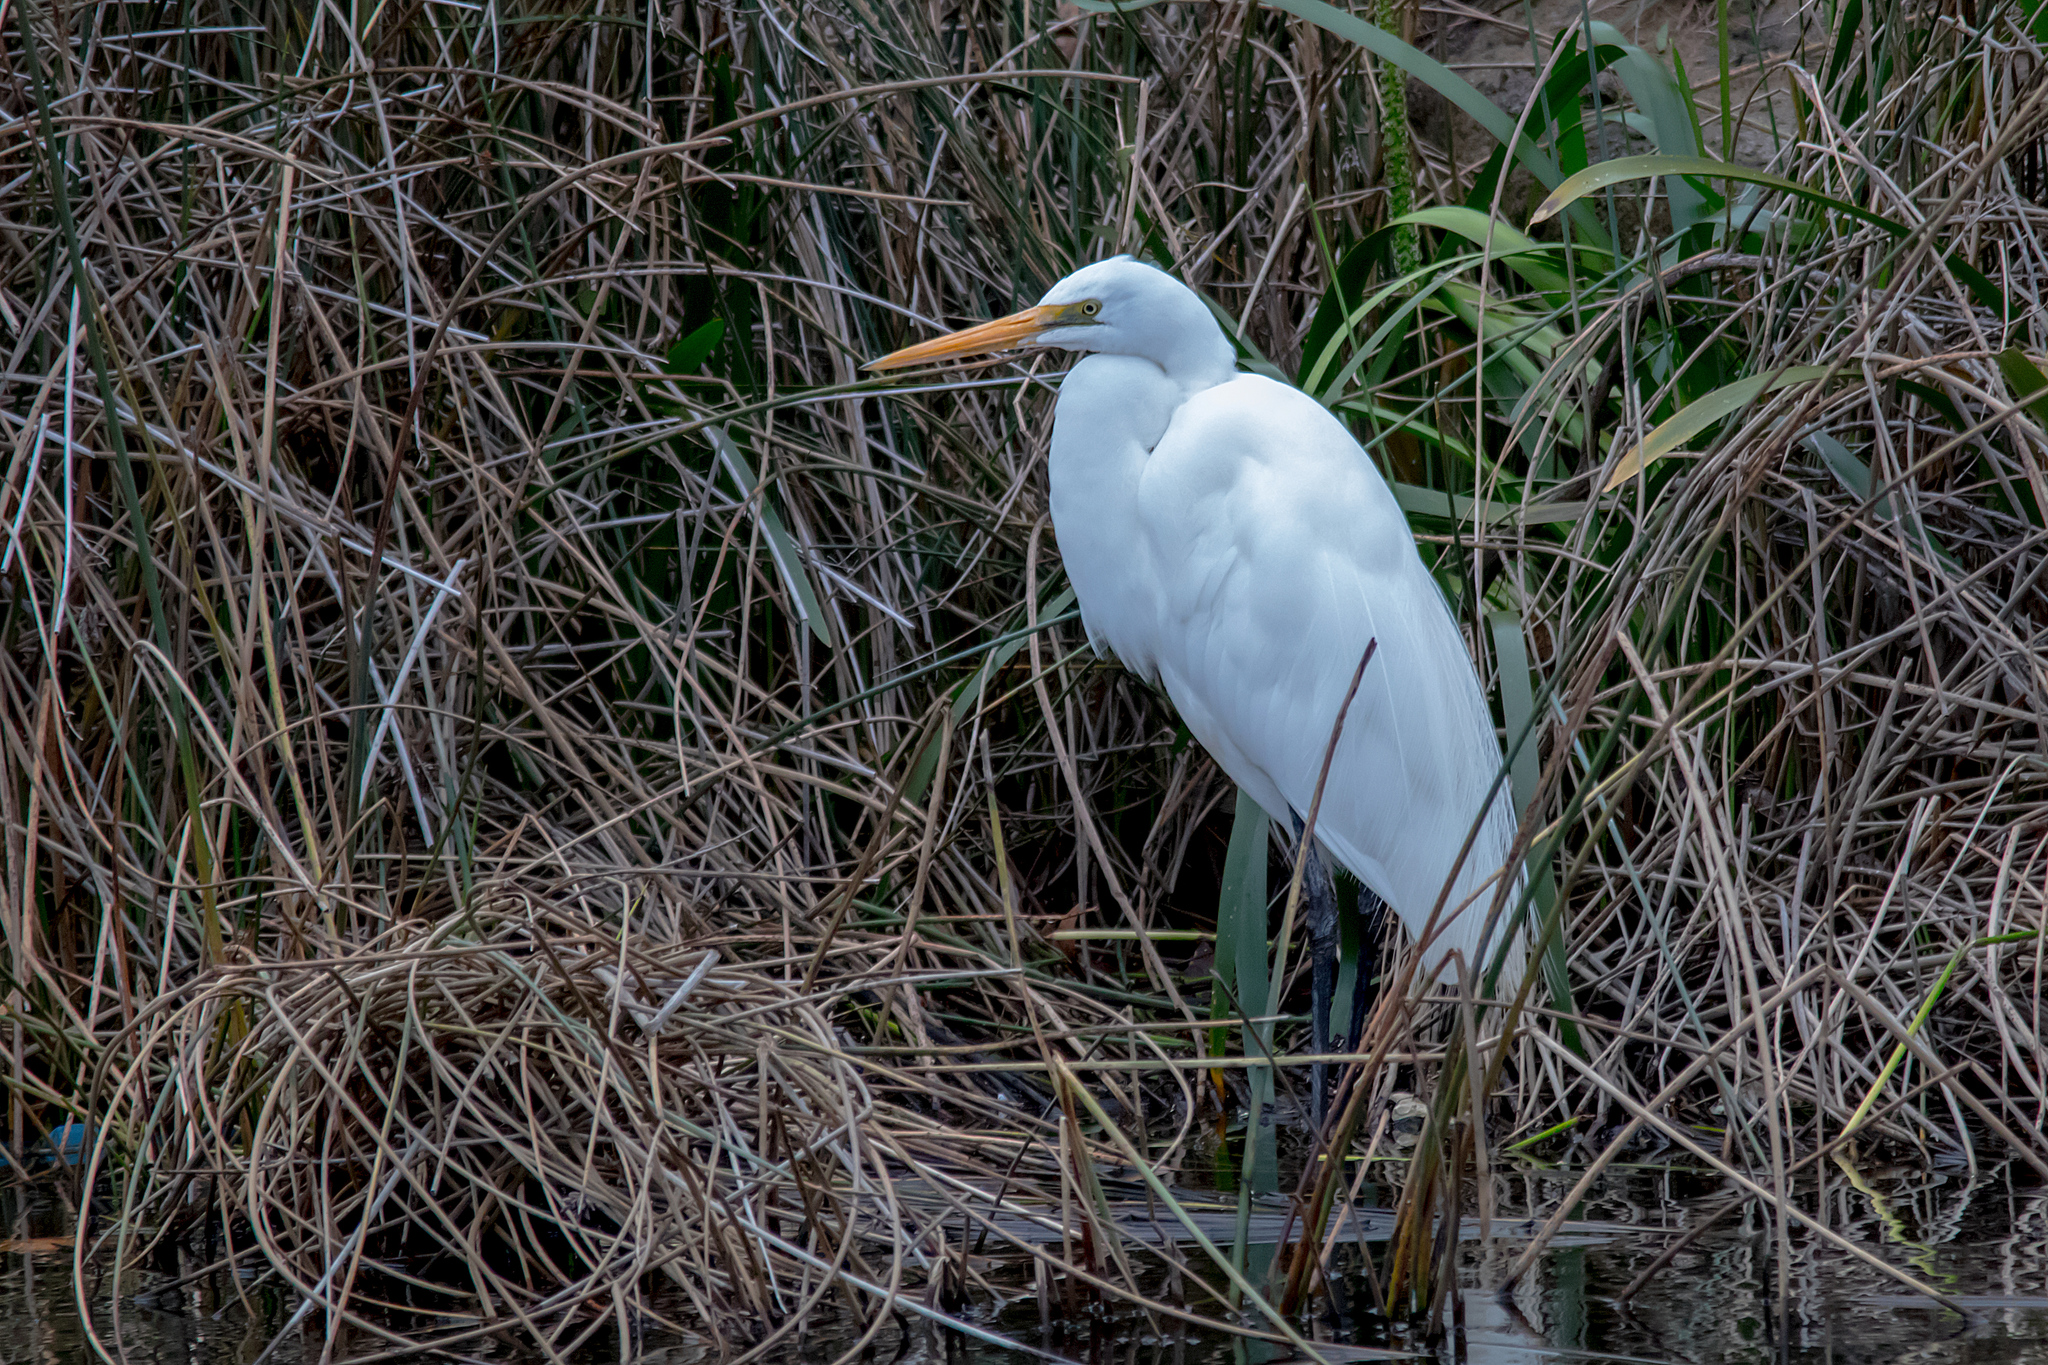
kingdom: Animalia
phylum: Chordata
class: Aves
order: Pelecaniformes
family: Ardeidae
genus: Ardea
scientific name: Ardea alba
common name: Great egret
